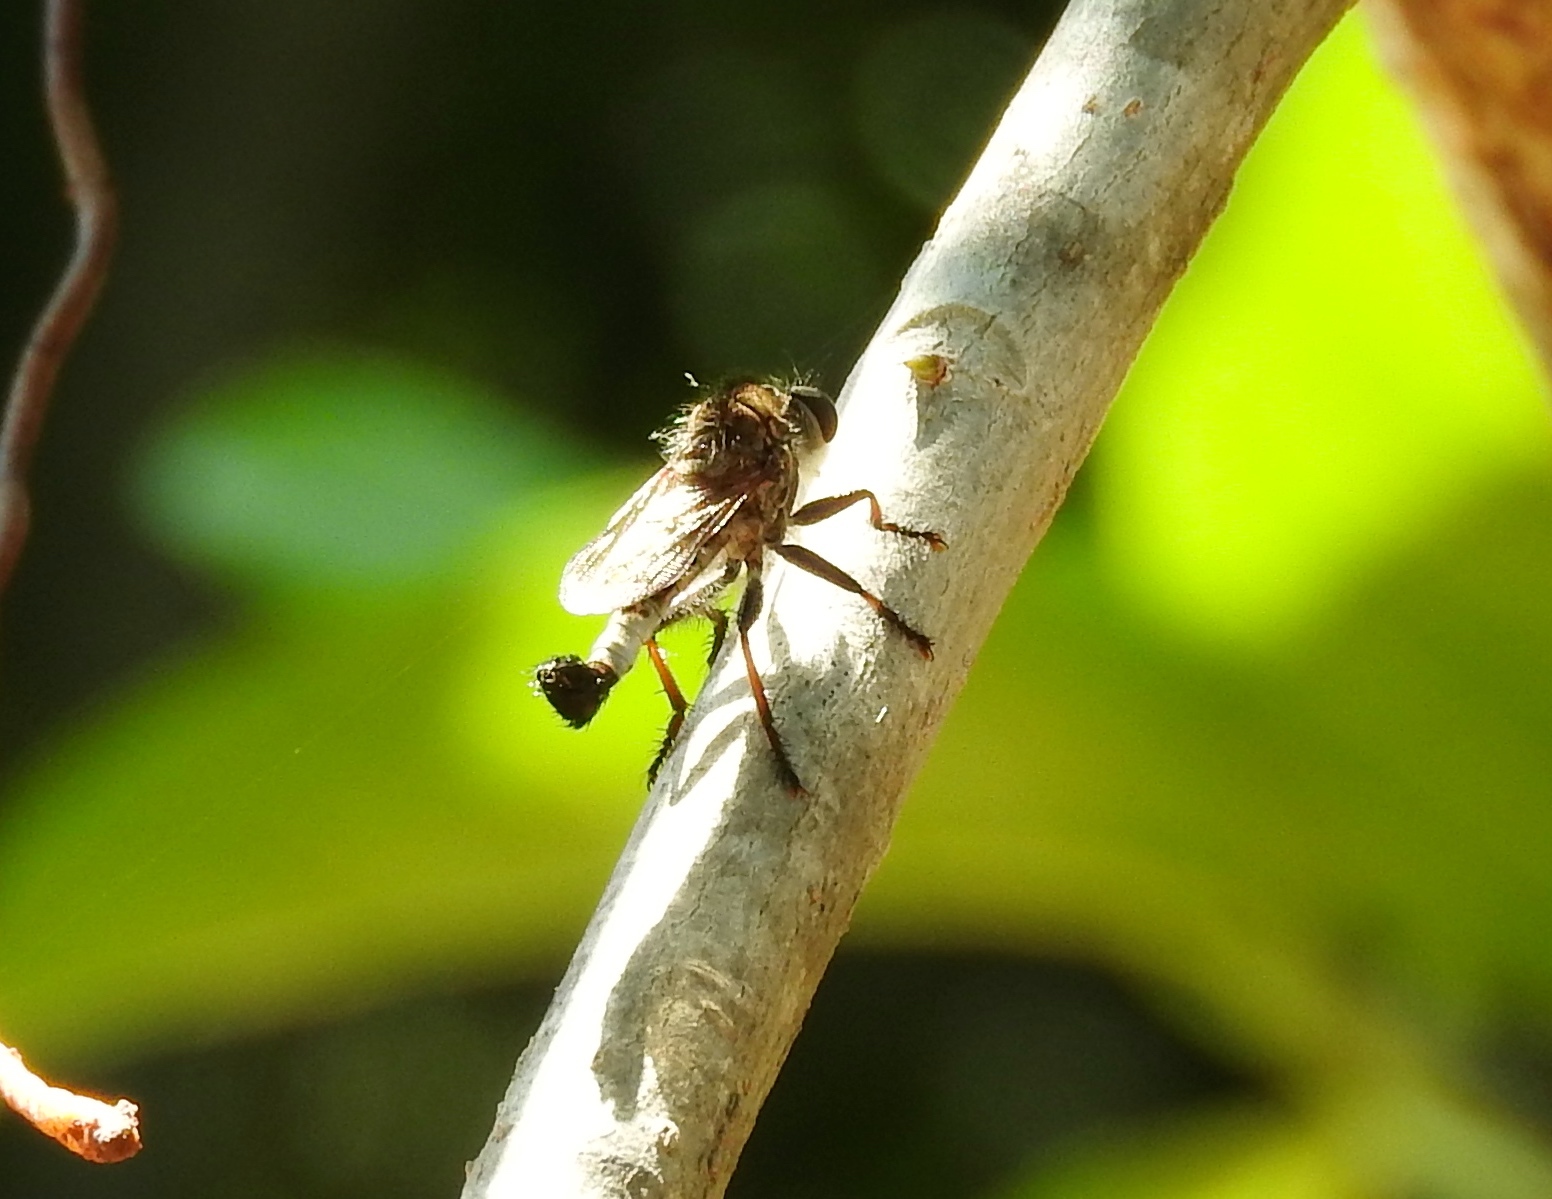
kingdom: Animalia
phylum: Arthropoda
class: Insecta
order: Diptera
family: Asilidae
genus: Efferia
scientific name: Efferia
